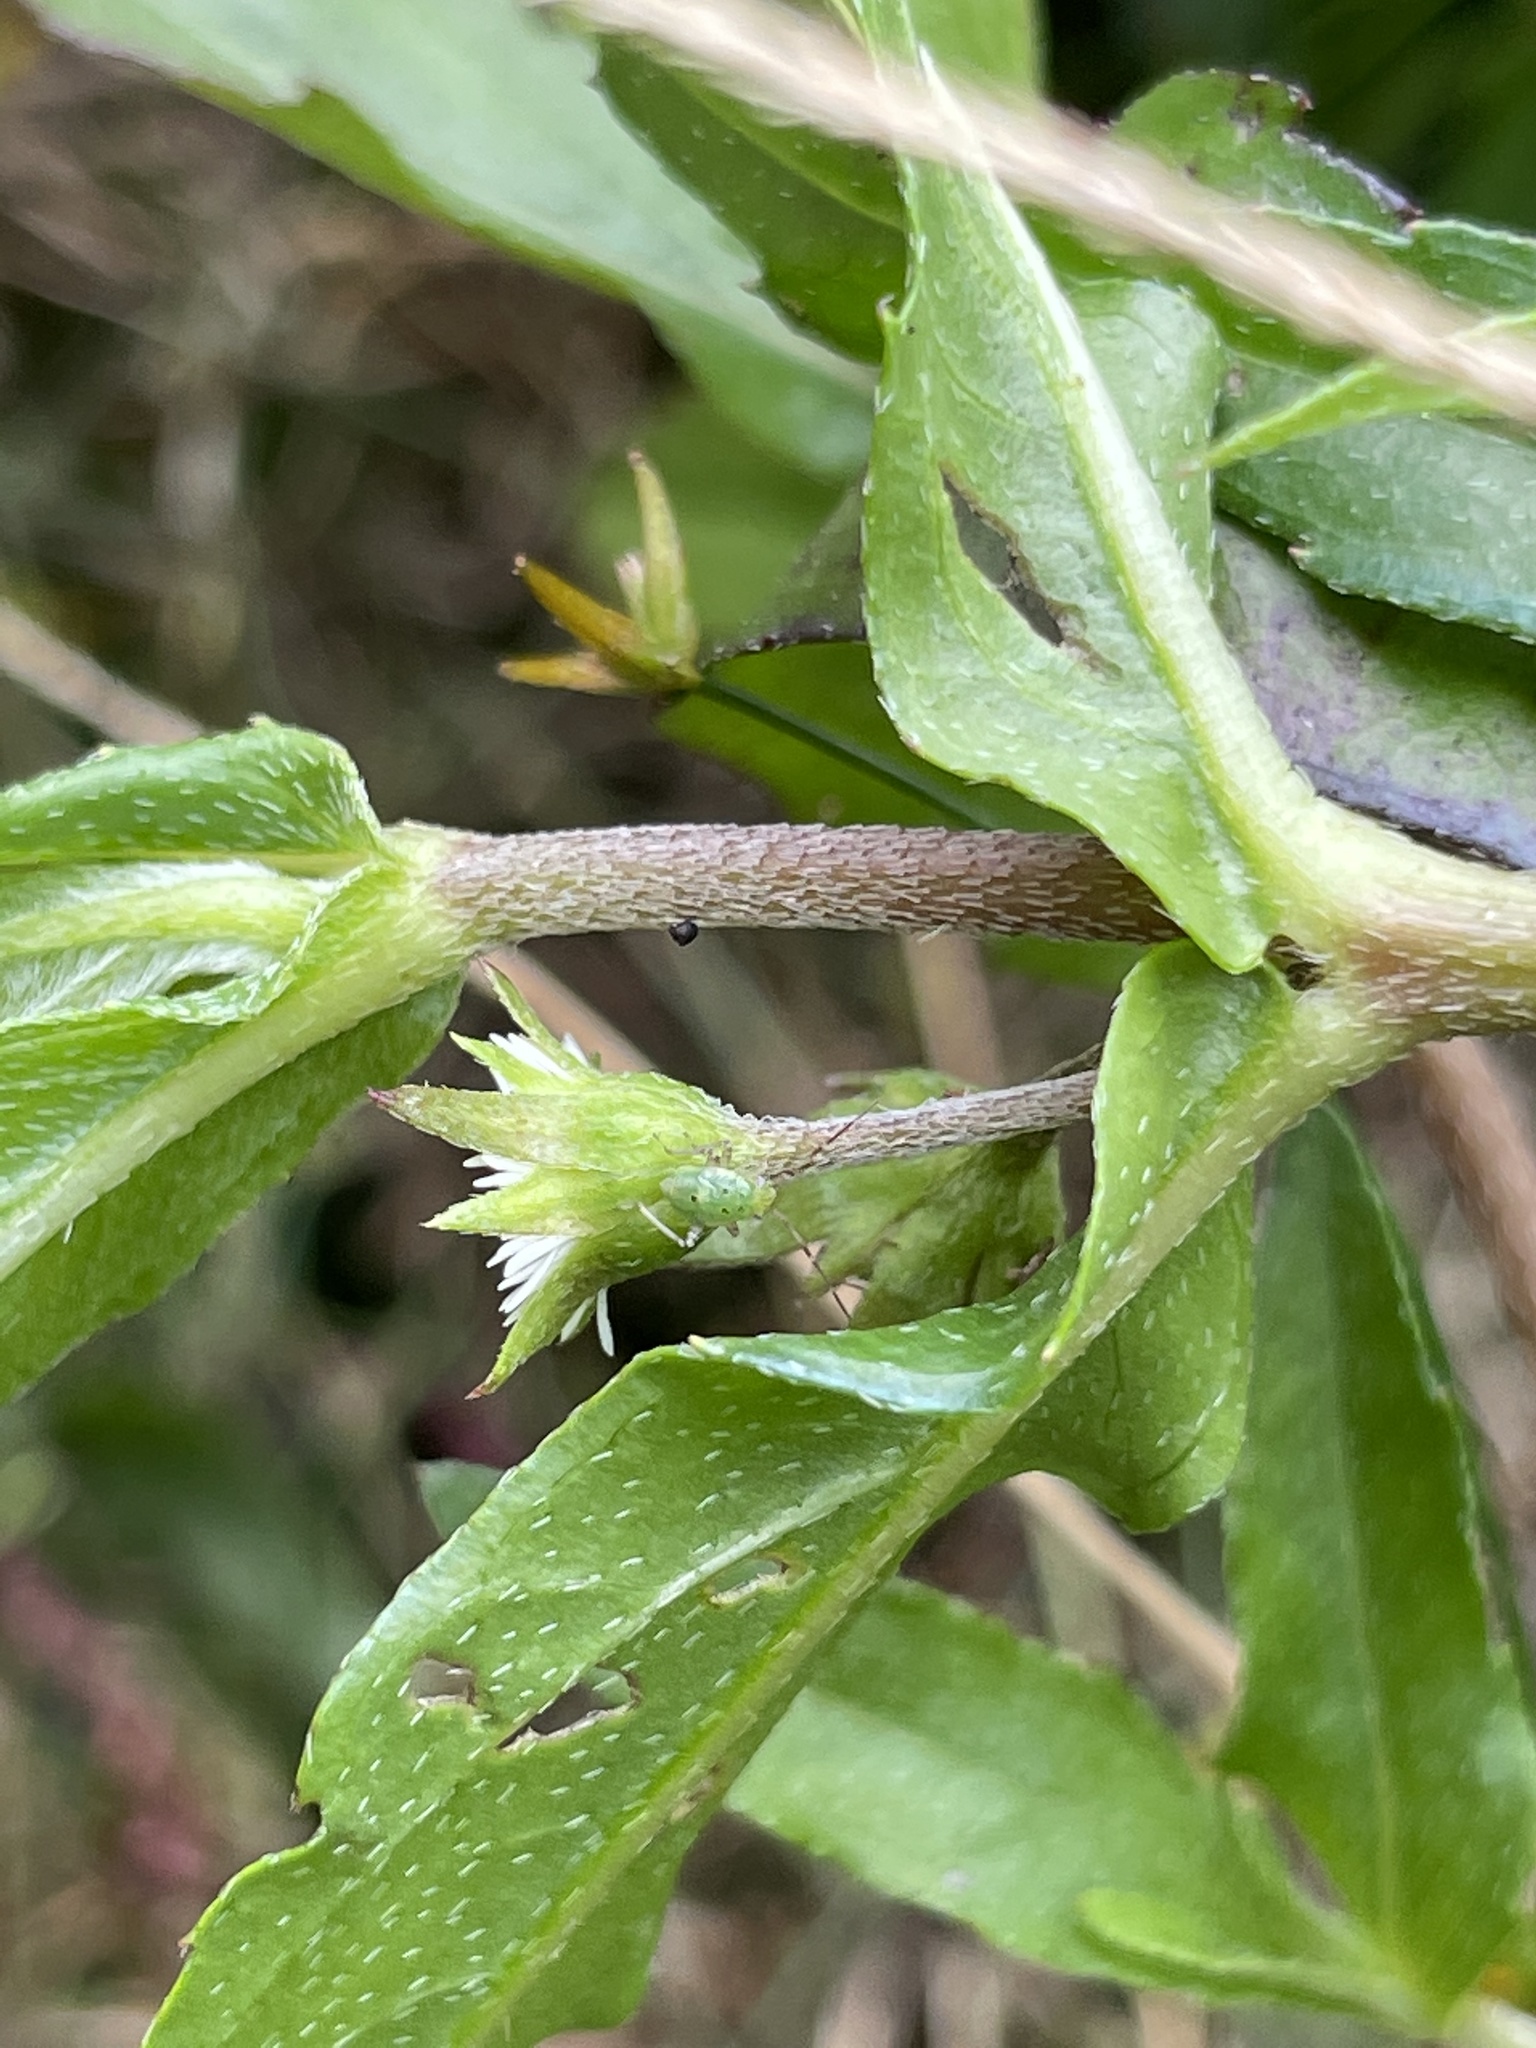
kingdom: Plantae
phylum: Tracheophyta
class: Magnoliopsida
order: Asterales
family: Asteraceae
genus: Eclipta
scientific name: Eclipta prostrata
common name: False daisy
